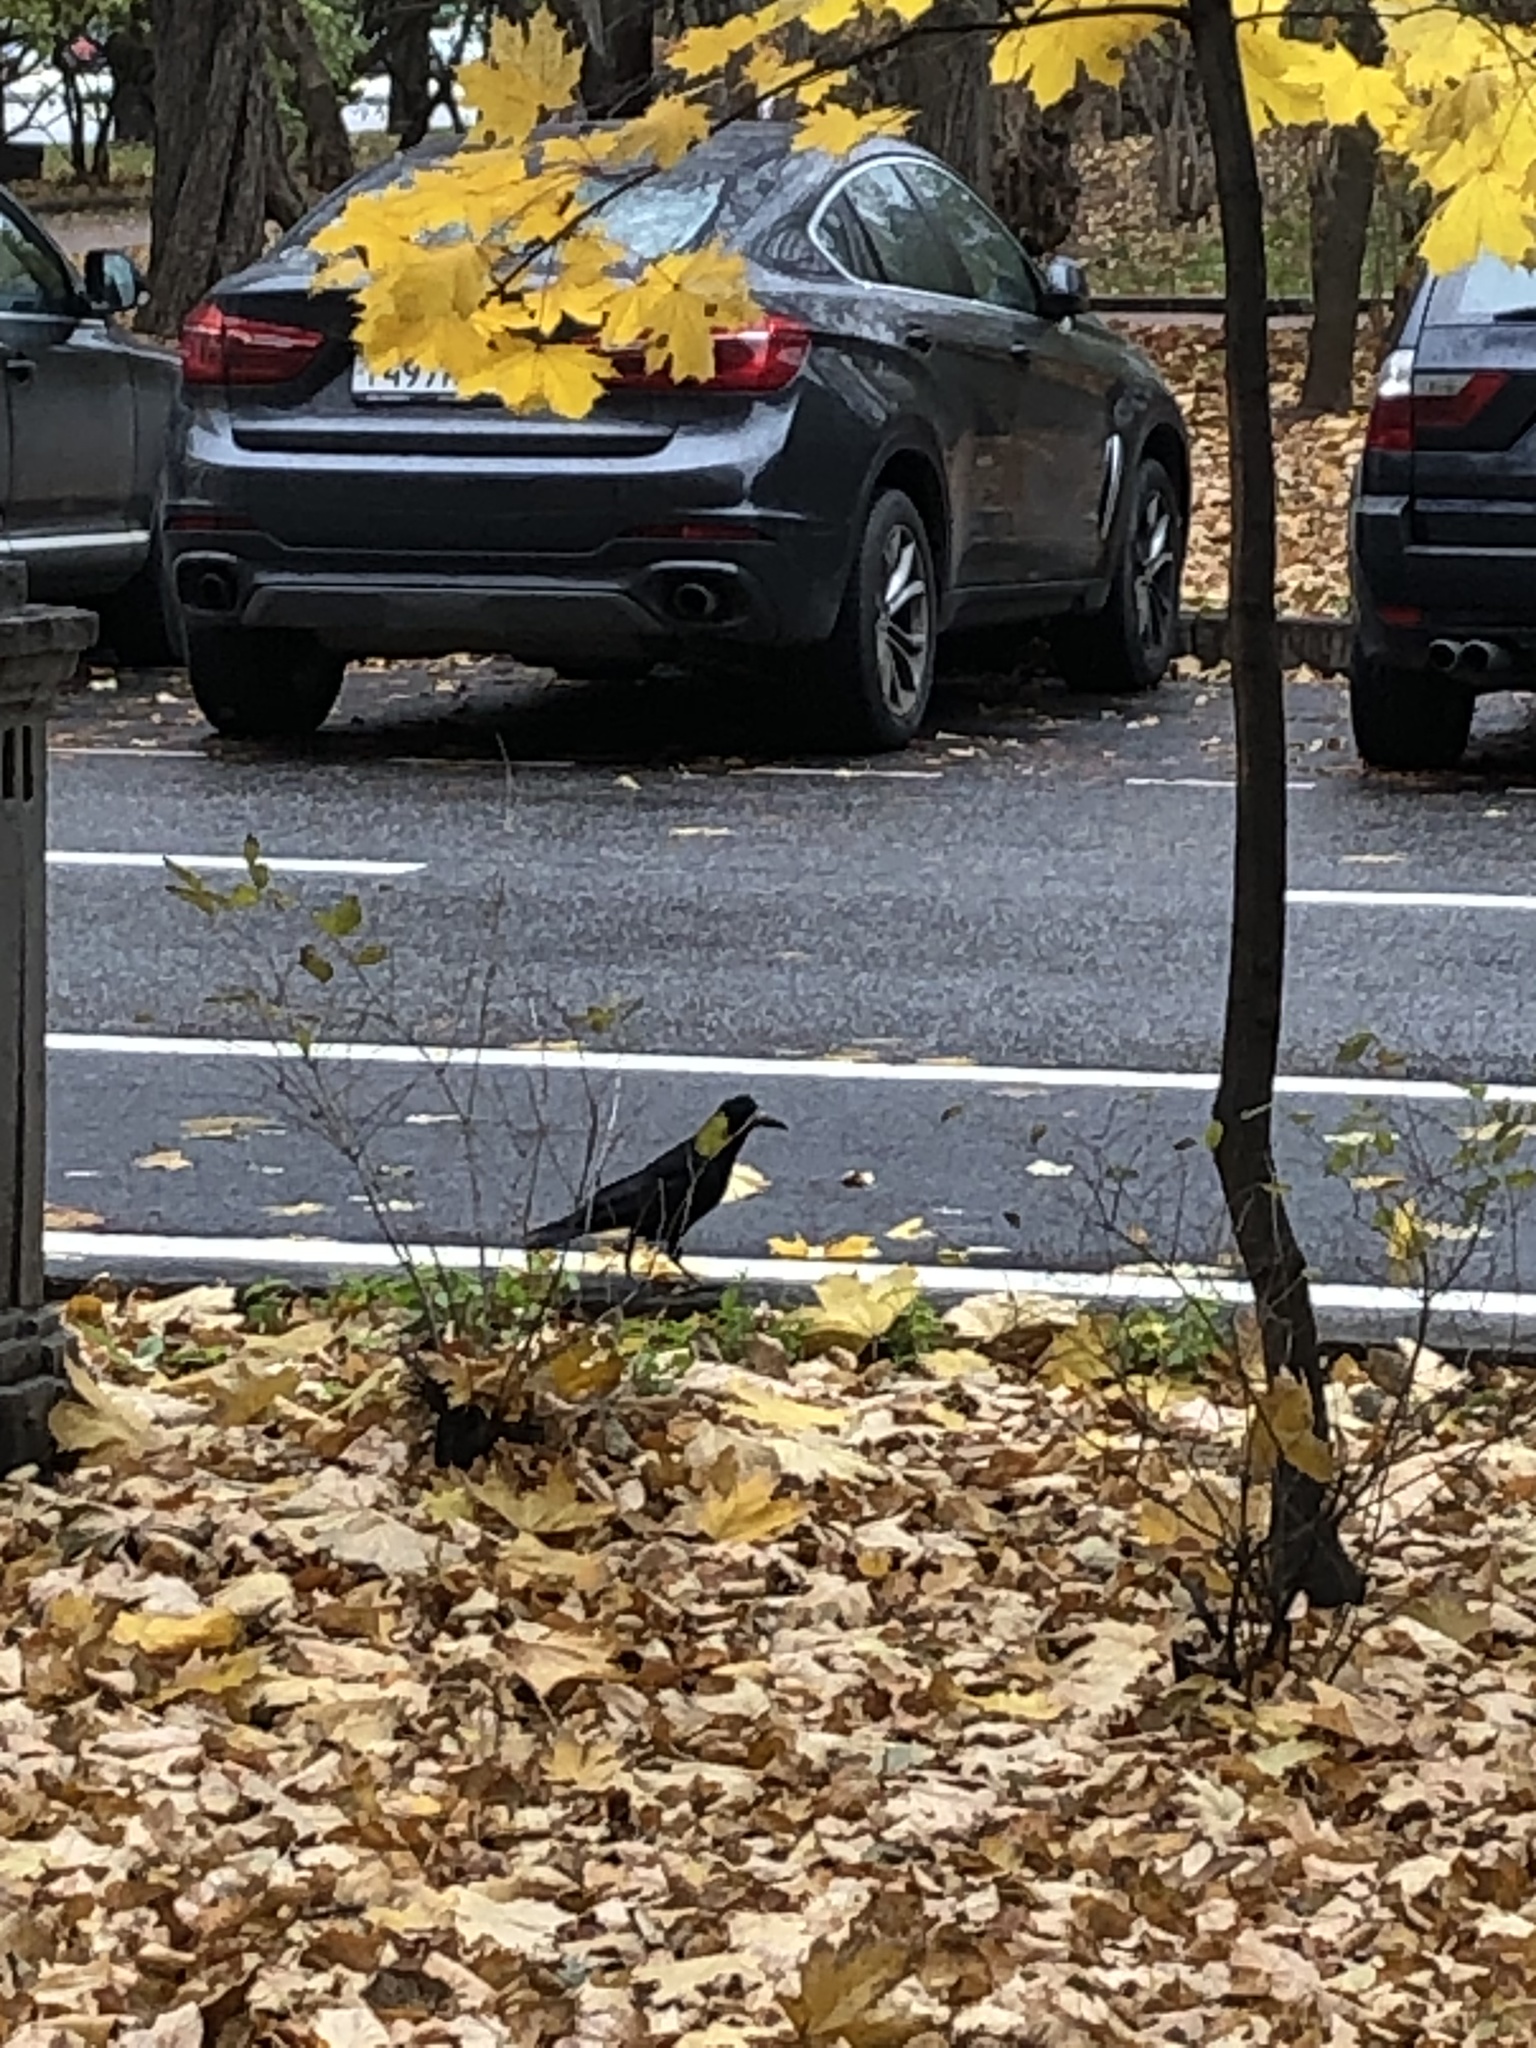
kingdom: Animalia
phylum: Chordata
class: Aves
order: Passeriformes
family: Corvidae
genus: Corvus
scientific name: Corvus frugilegus
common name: Rook
